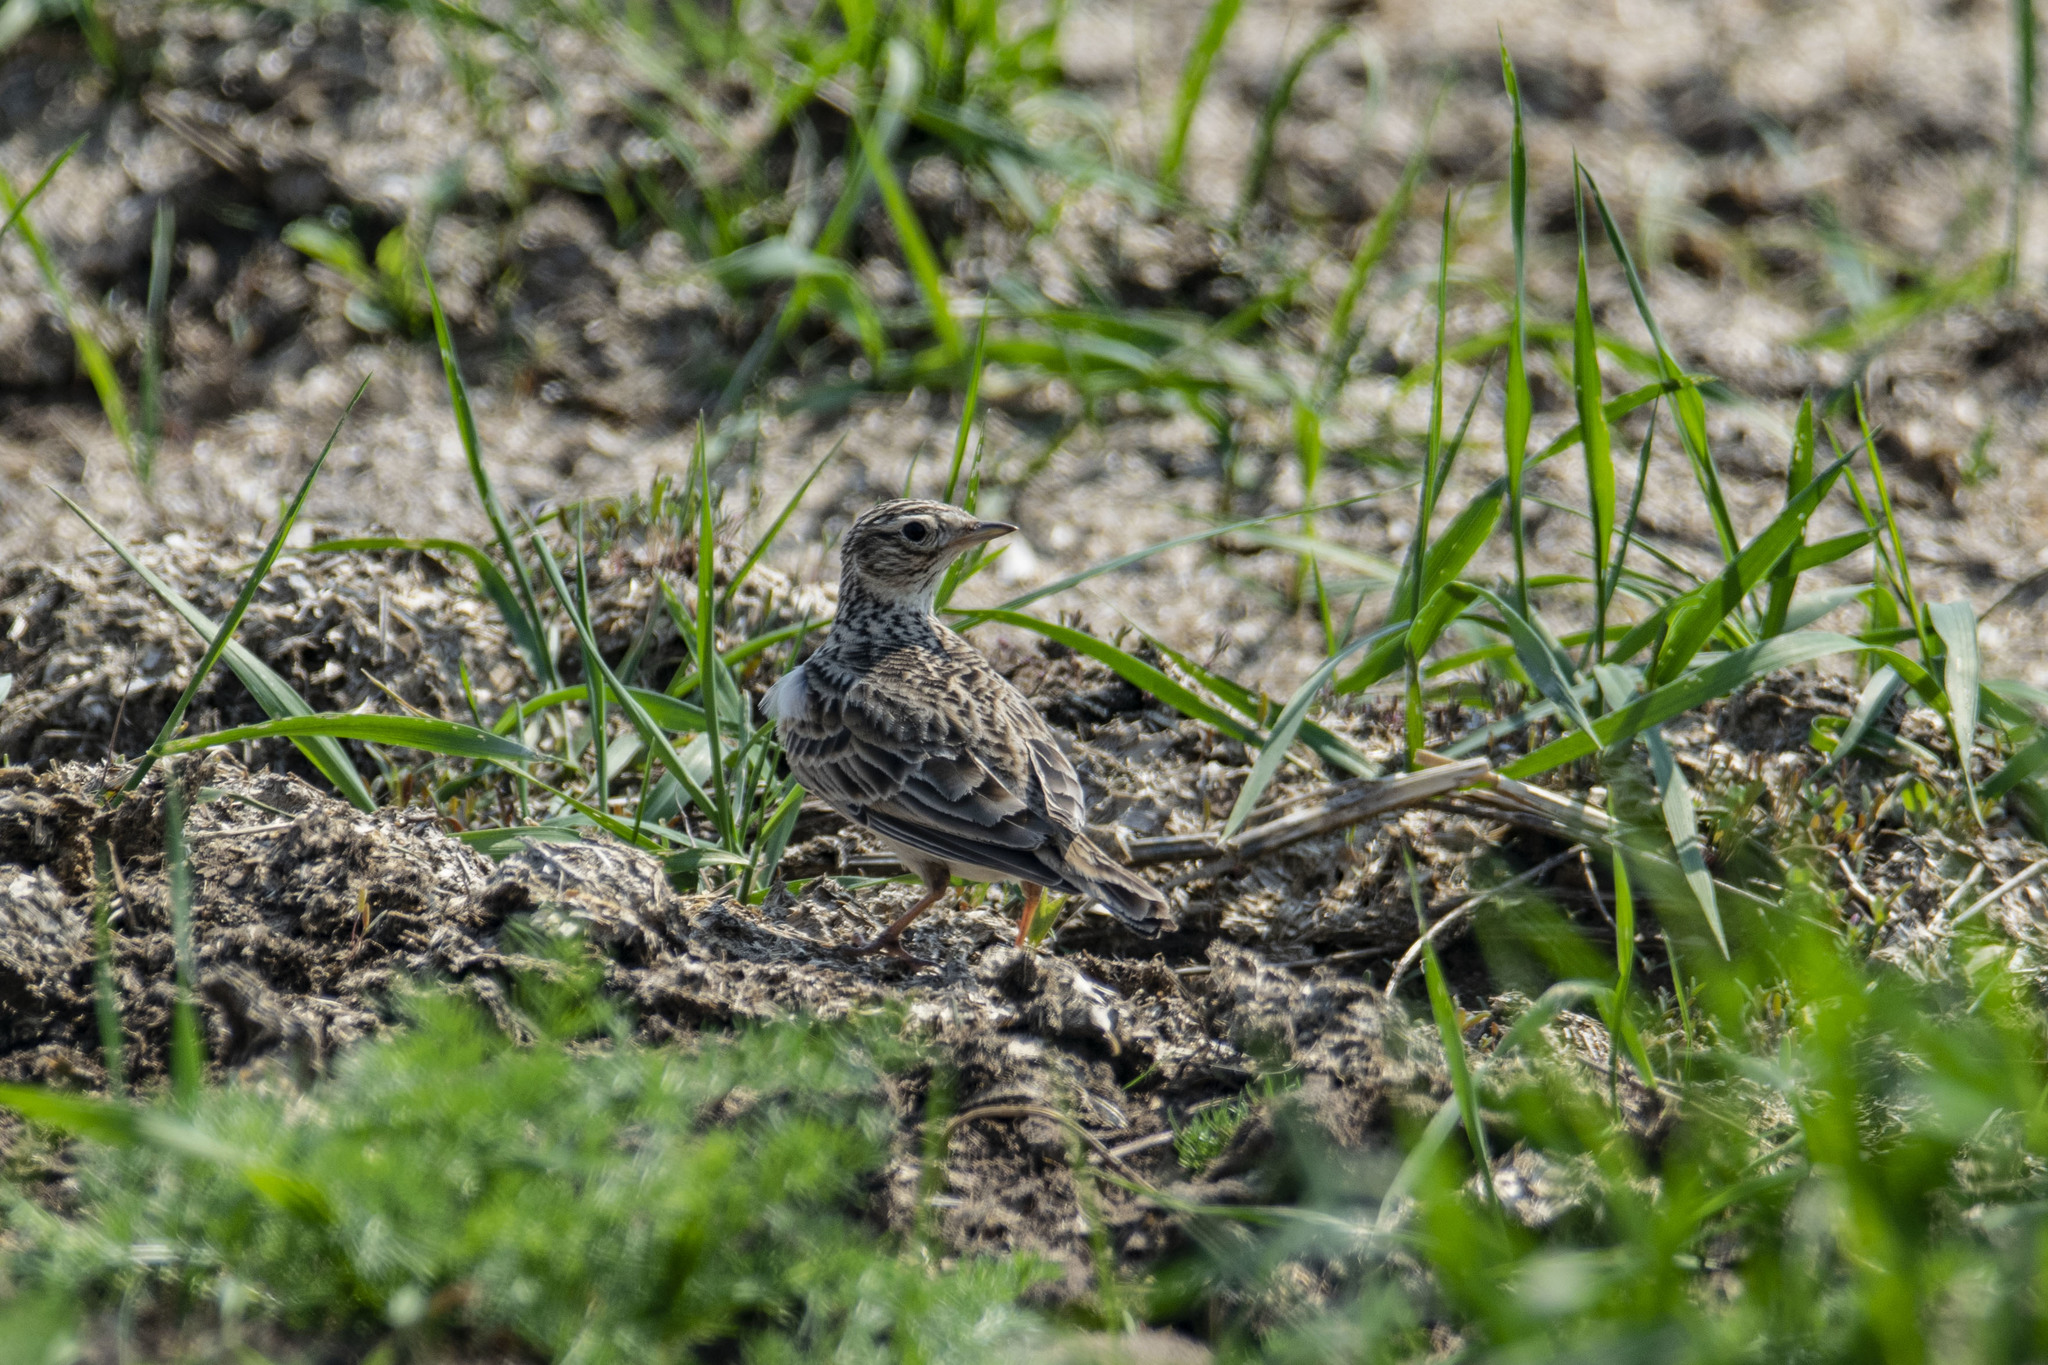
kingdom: Animalia
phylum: Chordata
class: Aves
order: Passeriformes
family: Alaudidae
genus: Alauda
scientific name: Alauda arvensis
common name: Eurasian skylark
